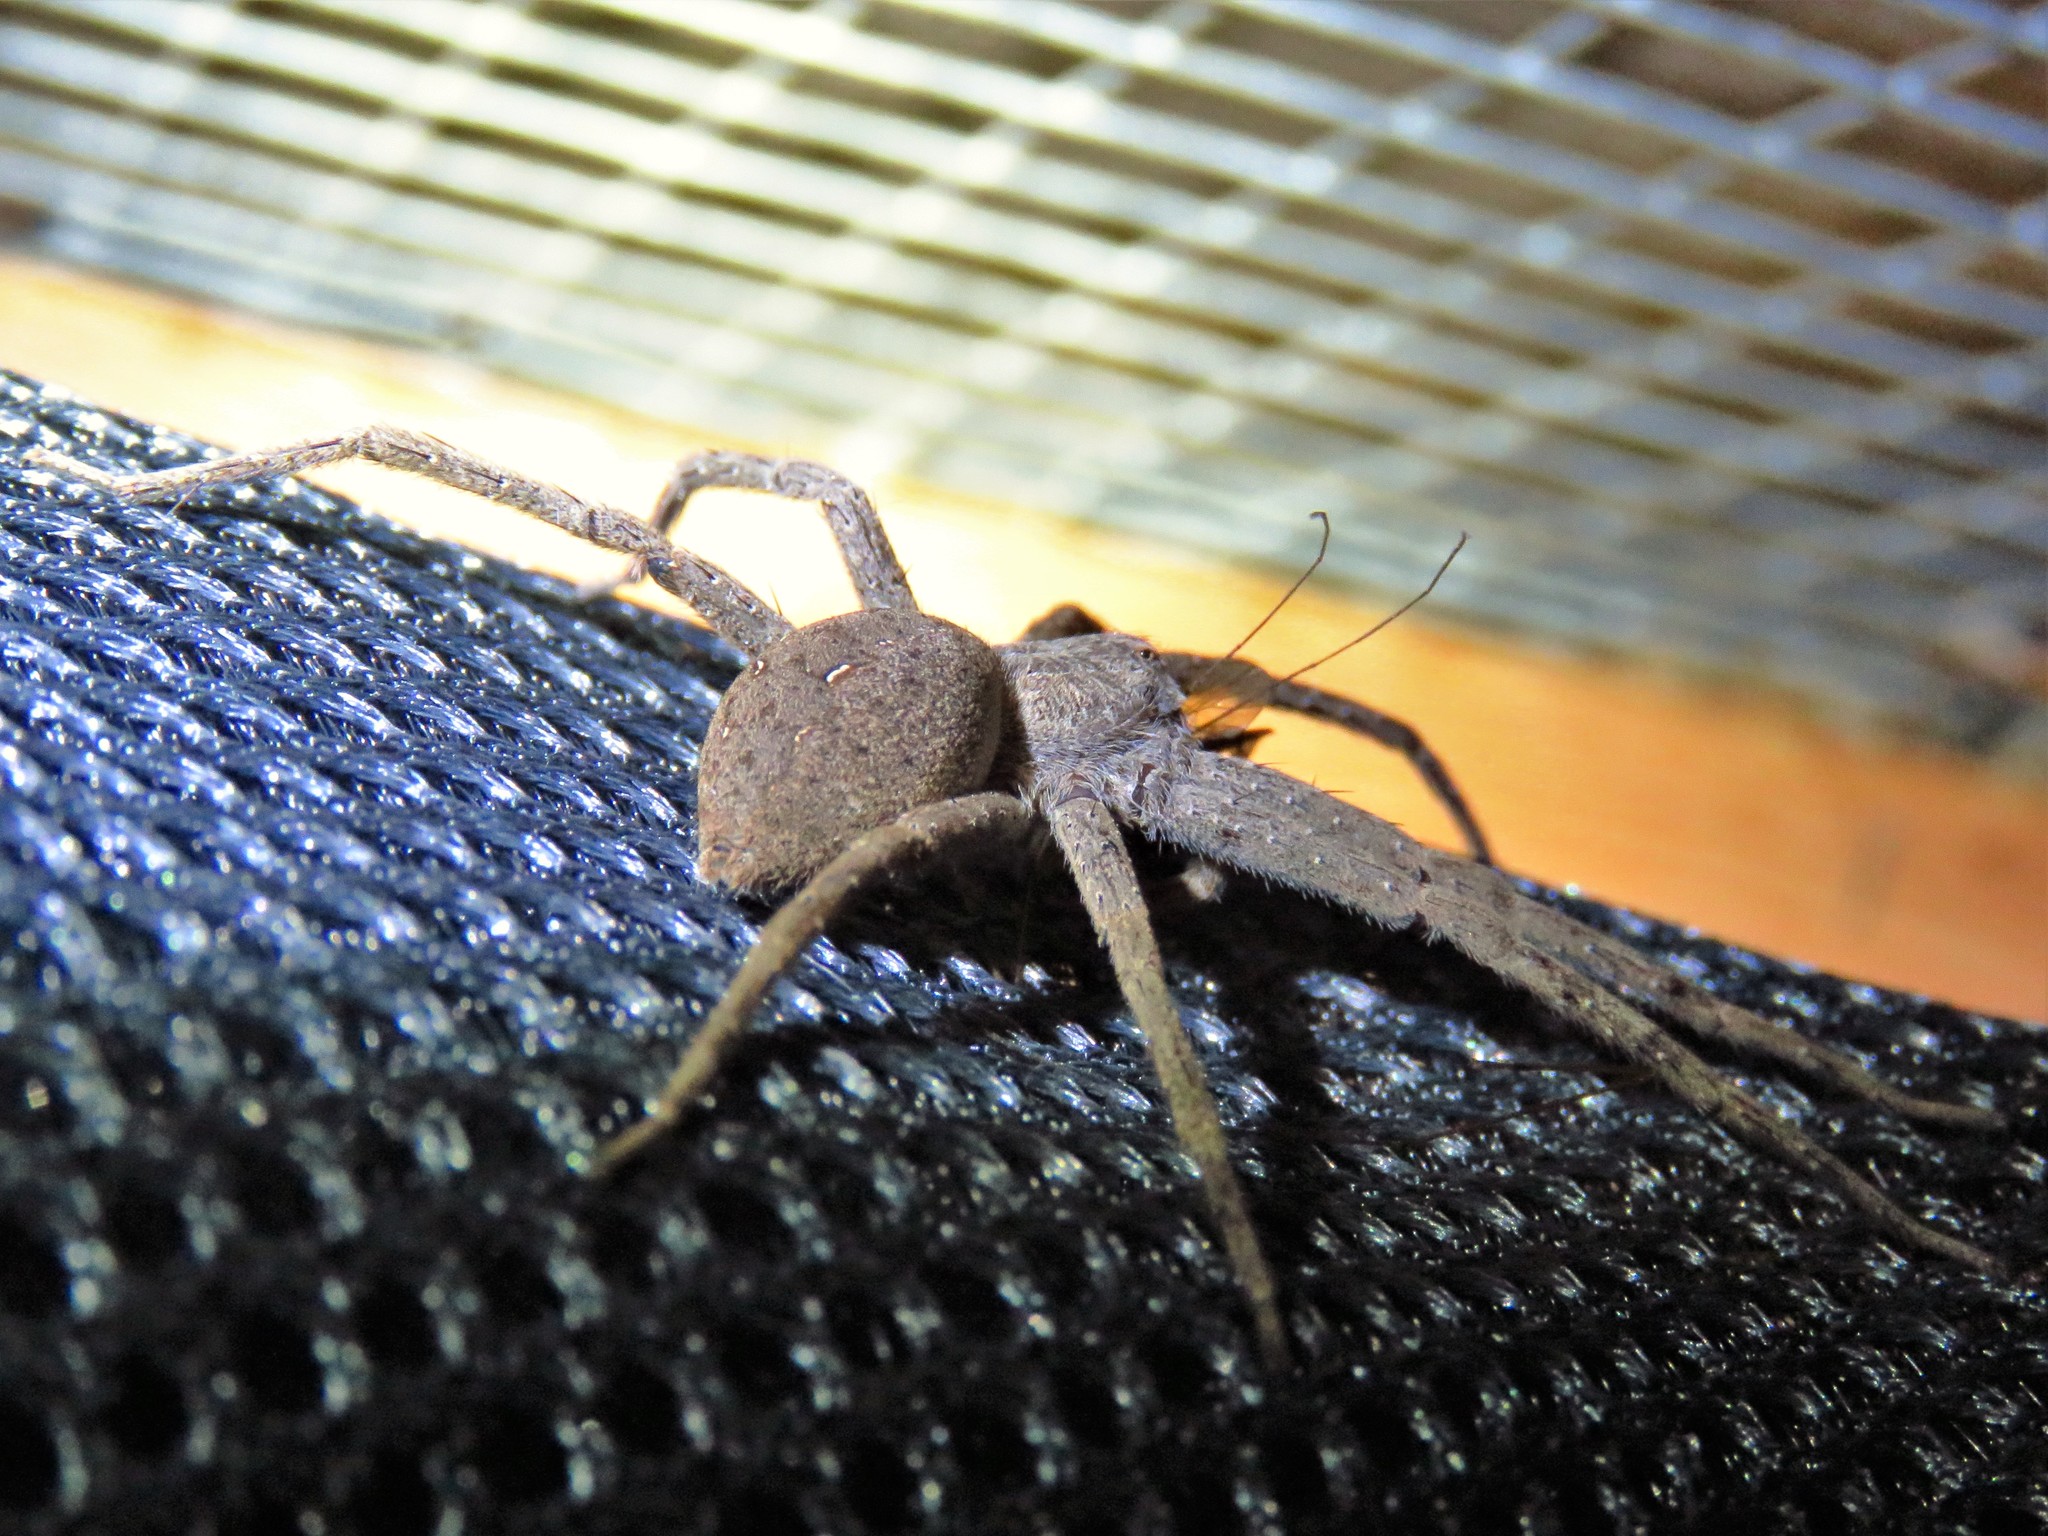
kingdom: Animalia
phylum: Arthropoda
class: Arachnida
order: Araneae
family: Pisauridae
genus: Pisaurina
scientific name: Pisaurina mira
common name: American nursery web spider
